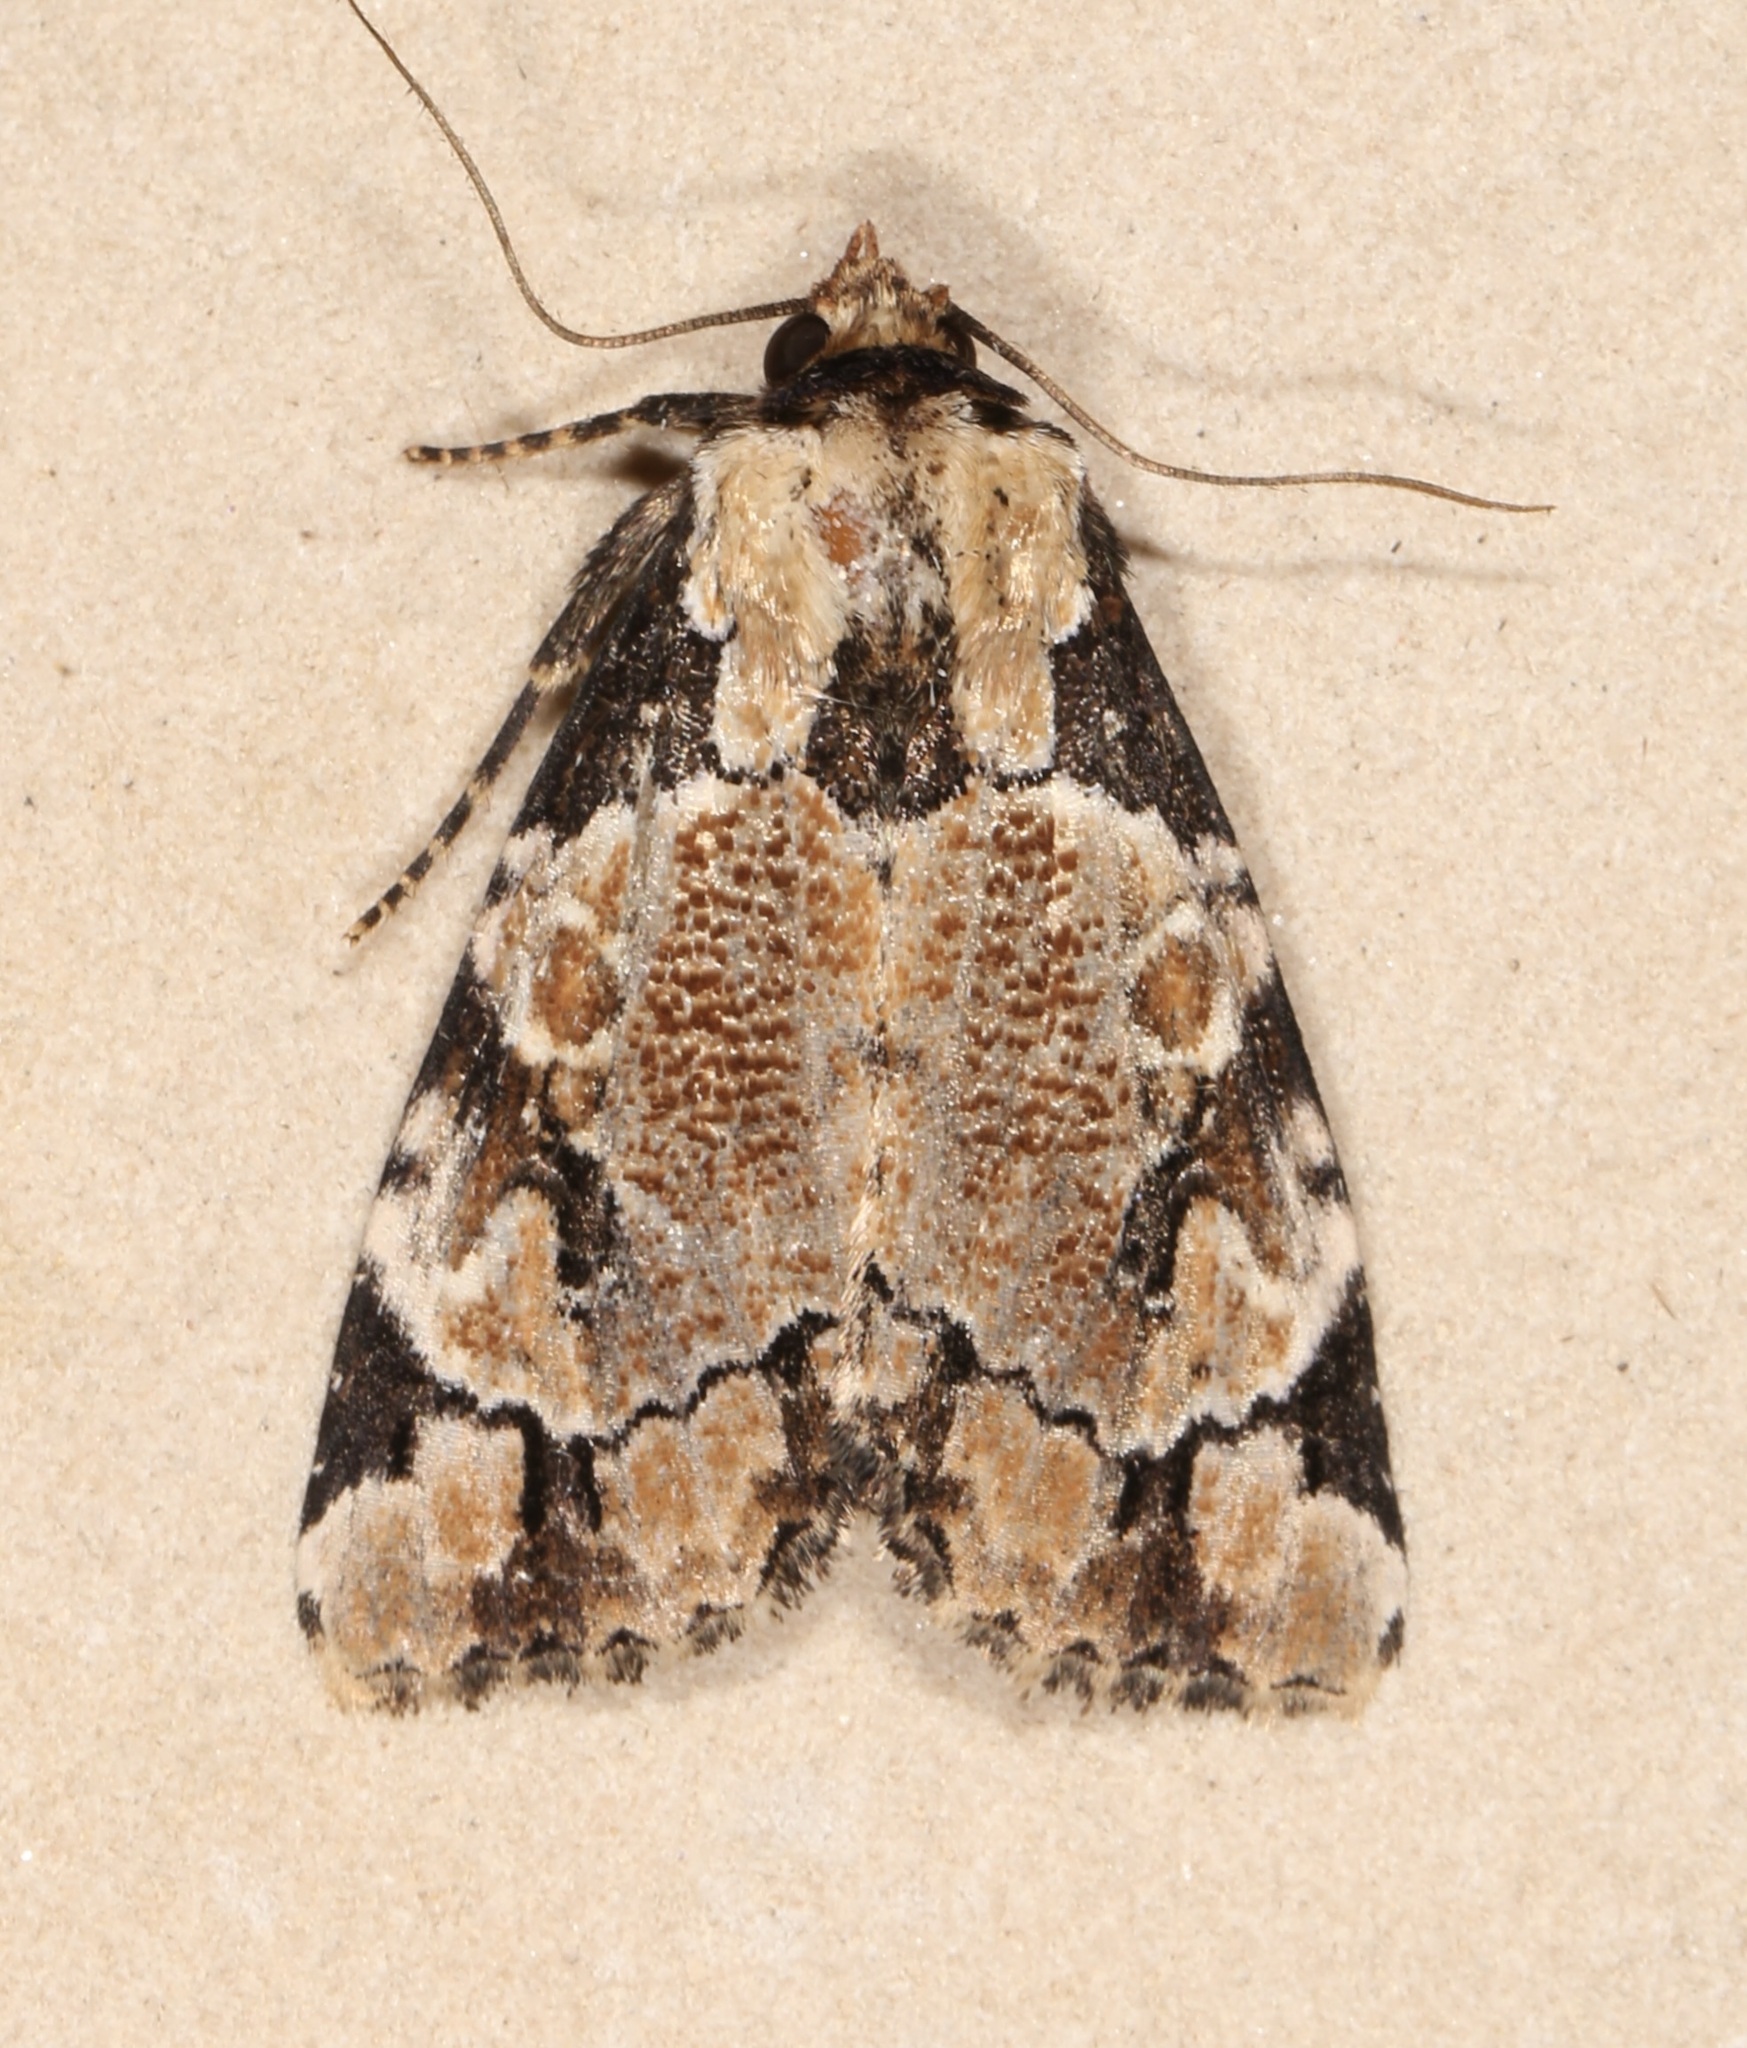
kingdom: Animalia
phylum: Arthropoda
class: Insecta
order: Lepidoptera
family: Noctuidae
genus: Stibaera
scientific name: Stibaera thyatiroides
